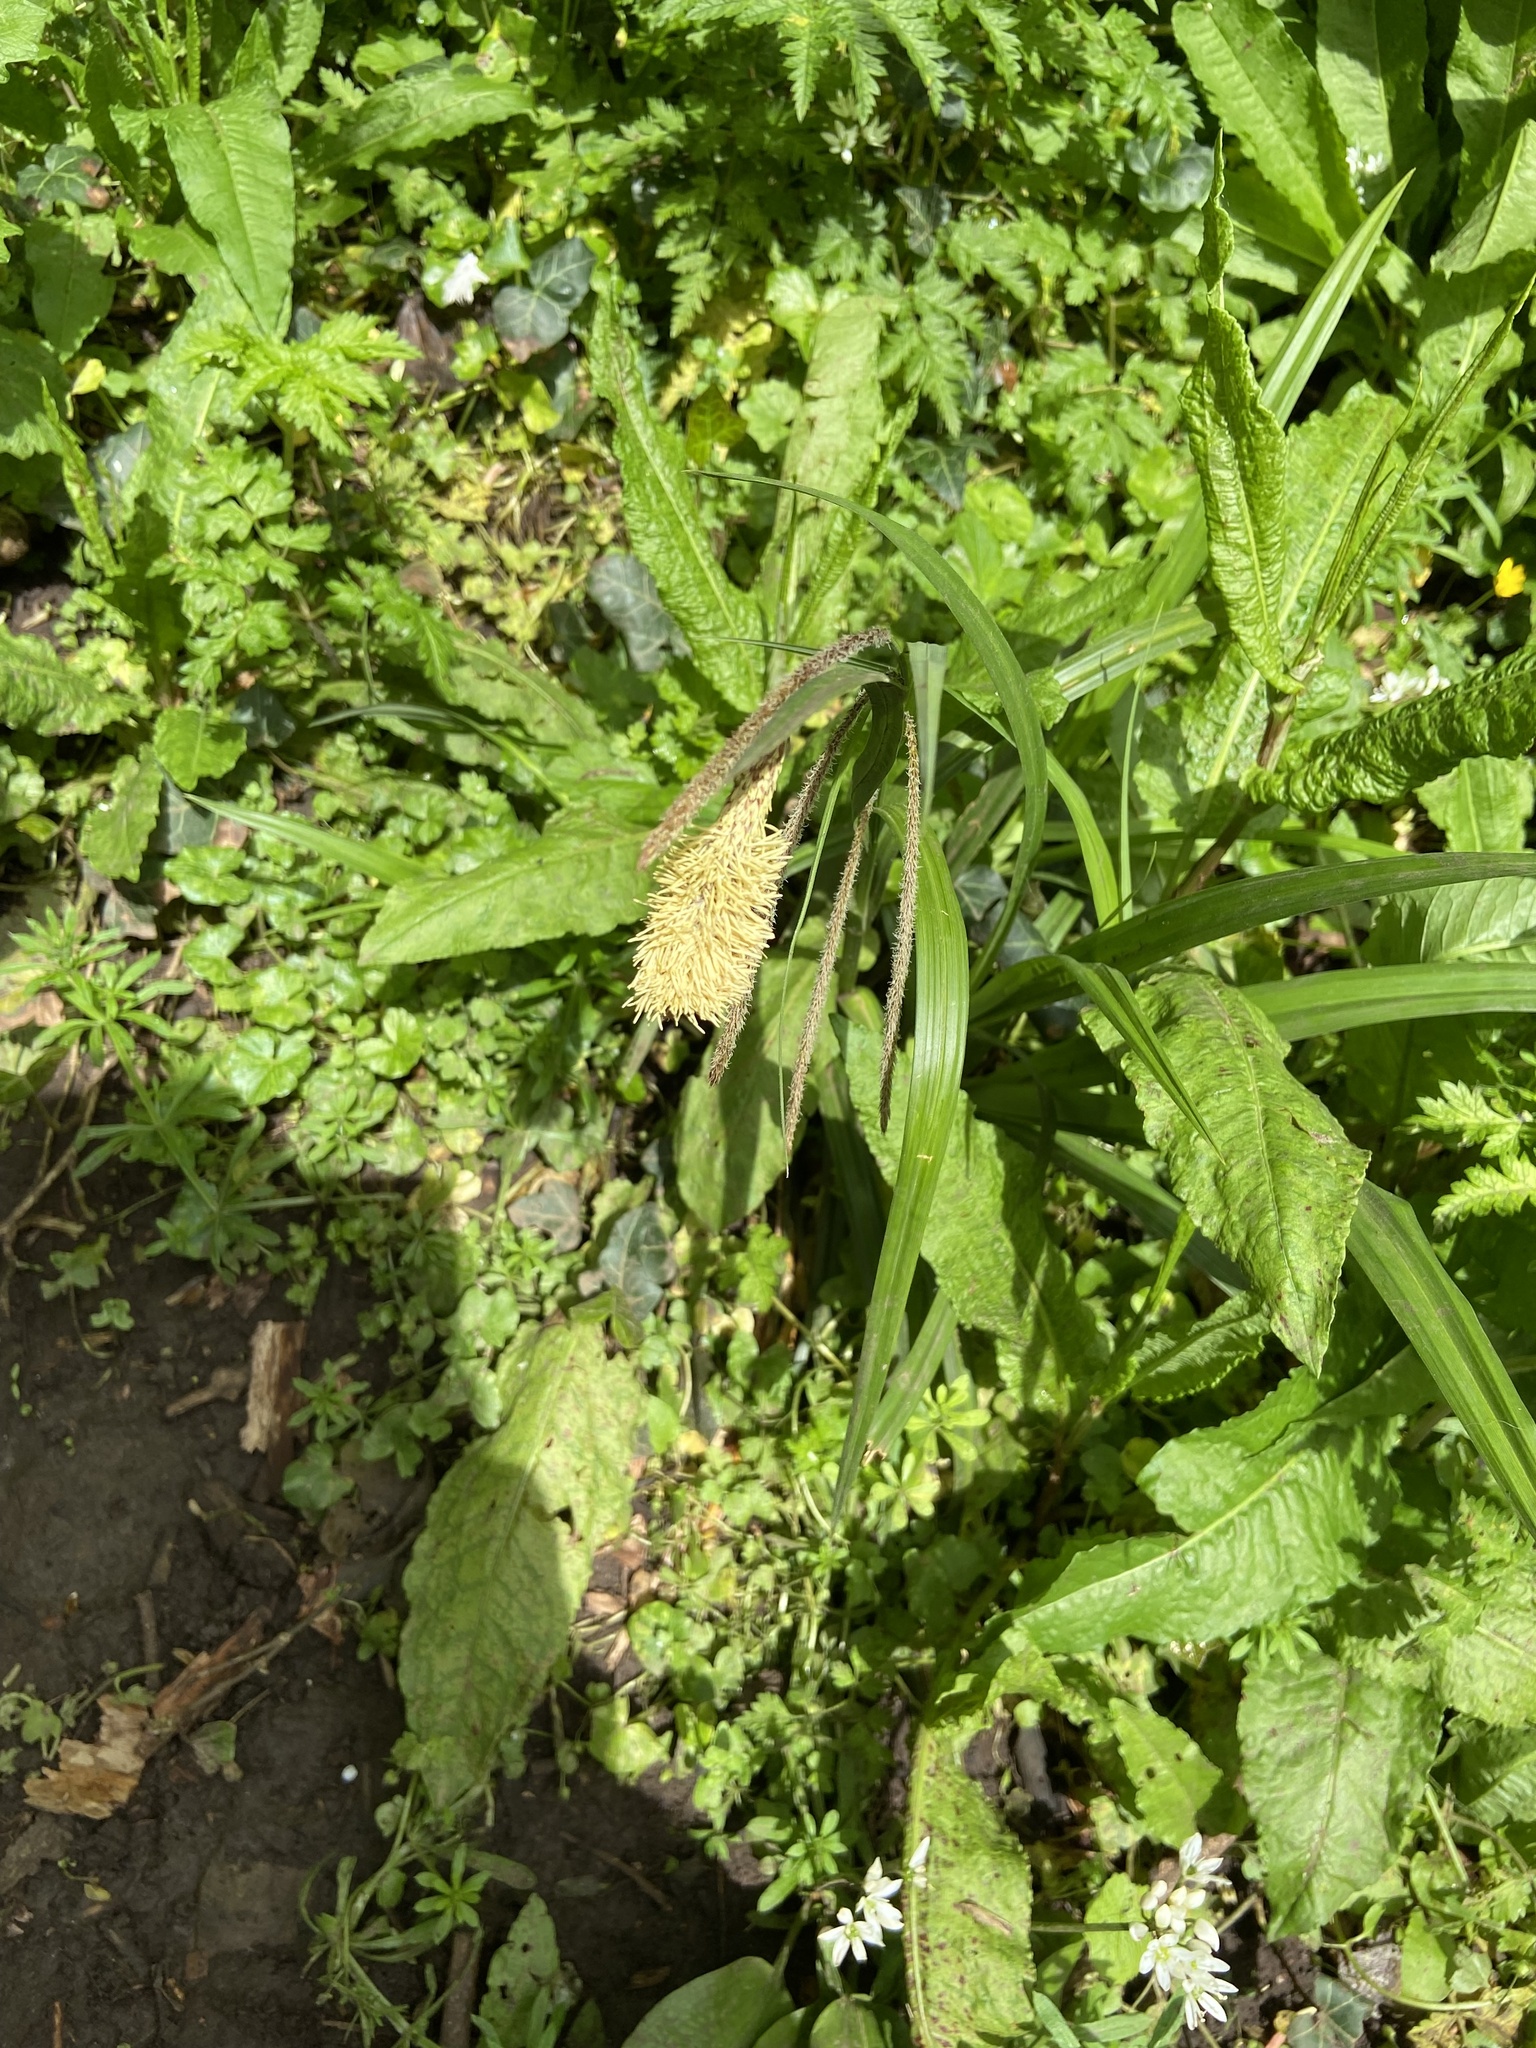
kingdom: Plantae
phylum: Tracheophyta
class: Liliopsida
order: Poales
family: Cyperaceae
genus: Carex
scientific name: Carex pendula
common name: Pendulous sedge
